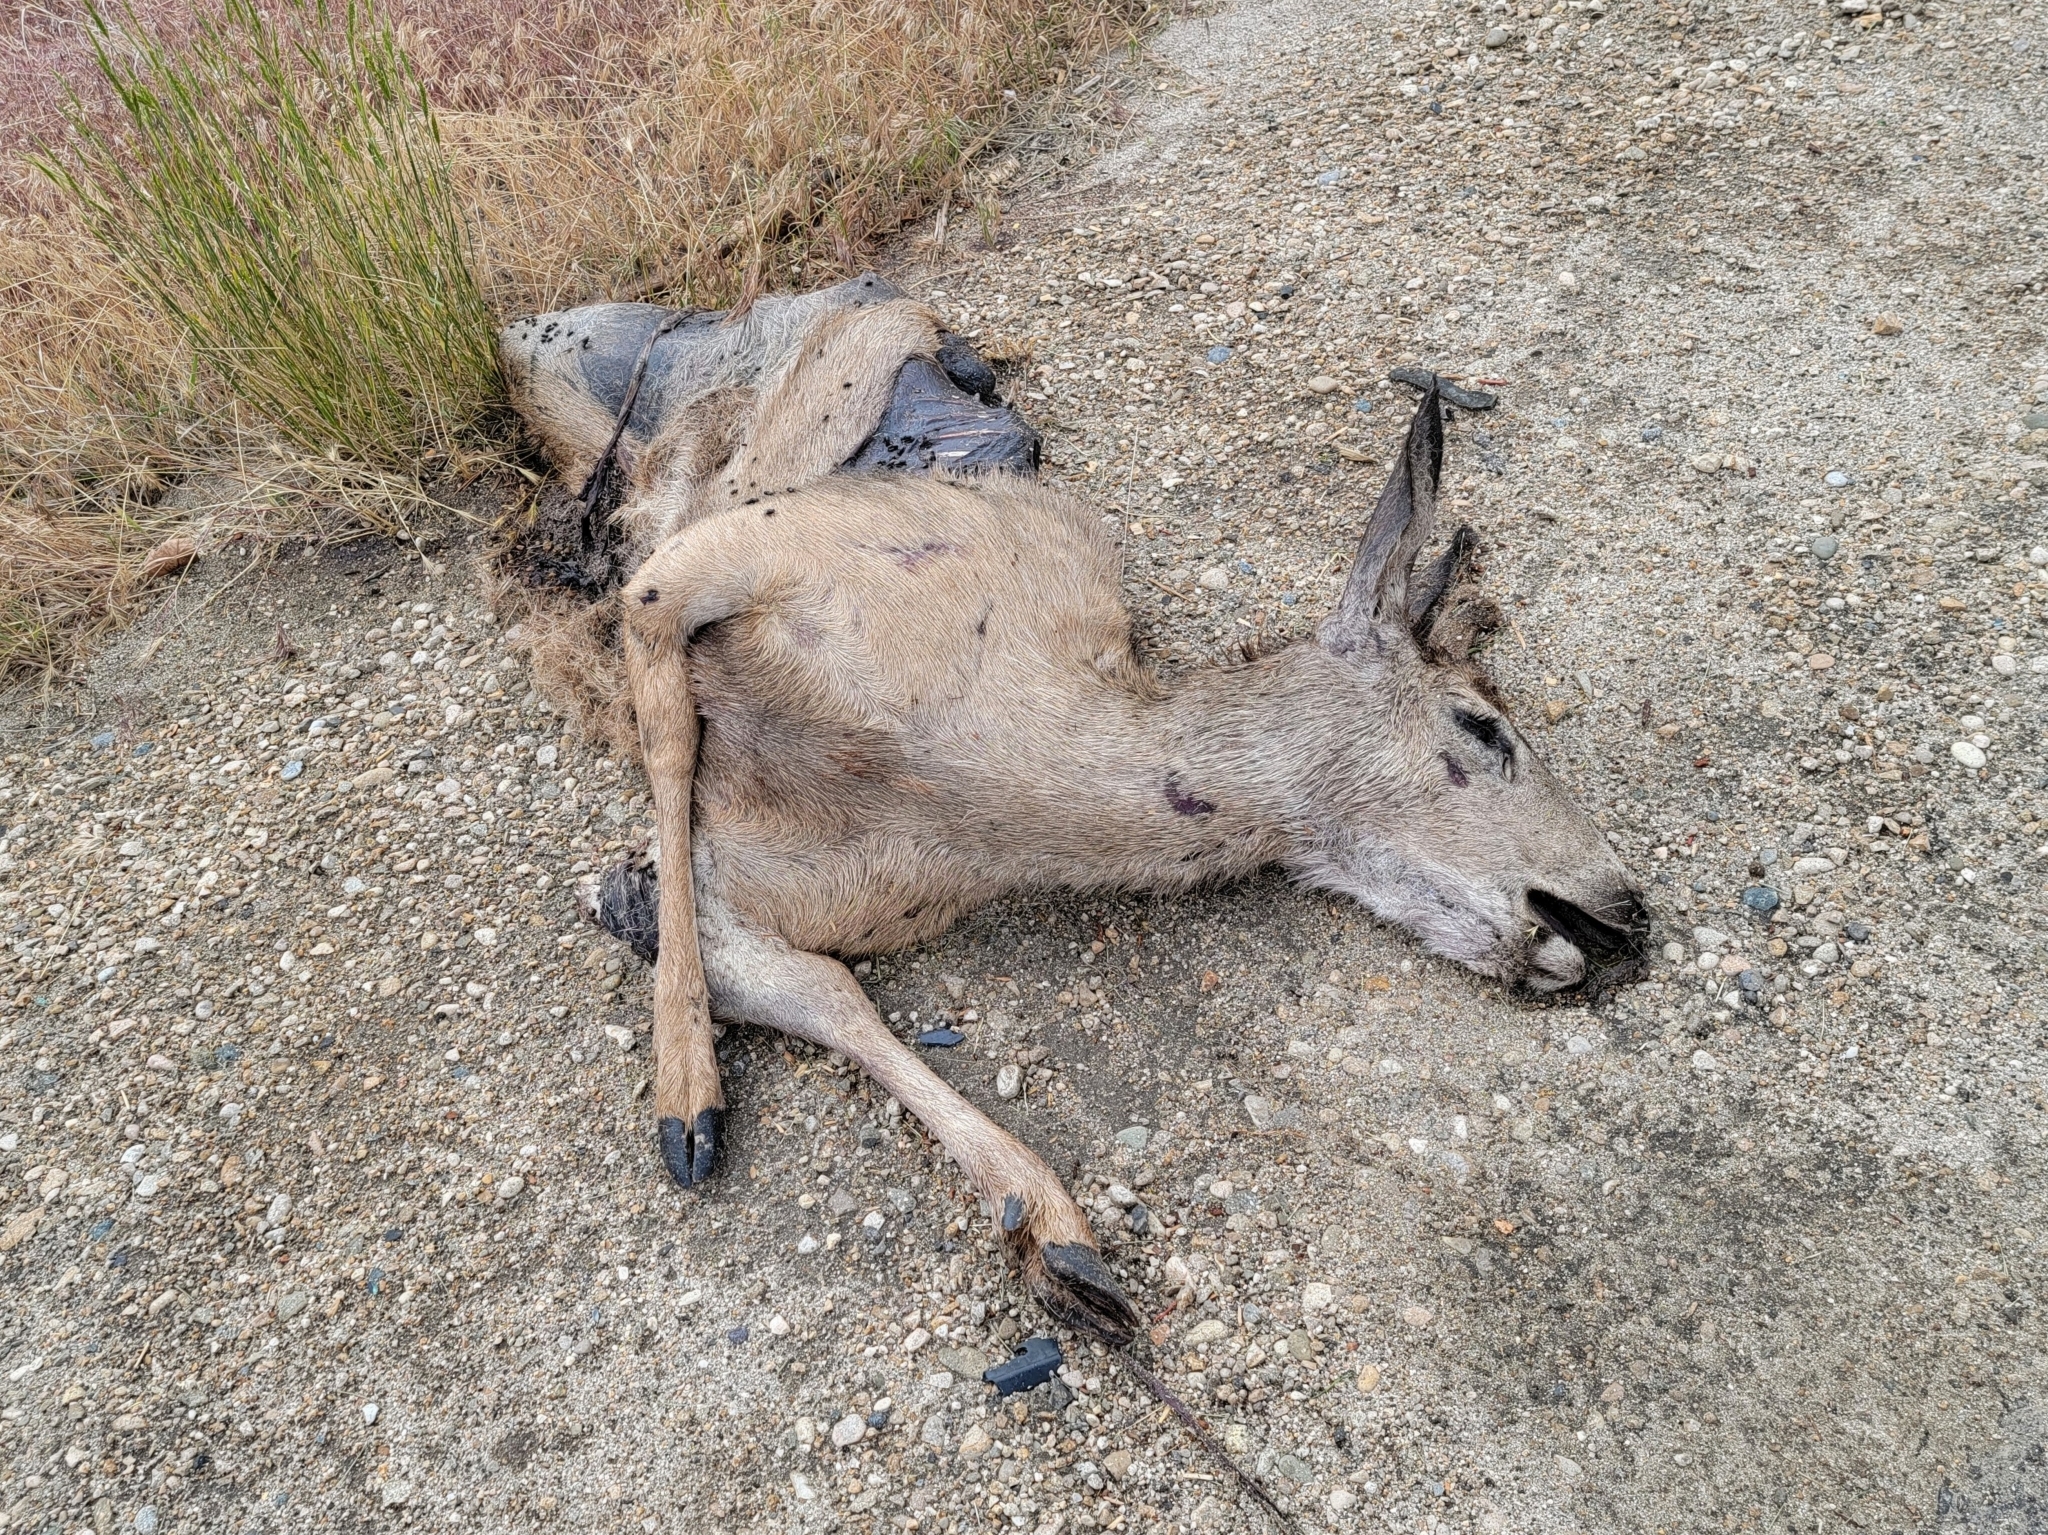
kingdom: Animalia
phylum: Chordata
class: Mammalia
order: Artiodactyla
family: Cervidae
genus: Odocoileus
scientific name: Odocoileus hemionus
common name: Mule deer
